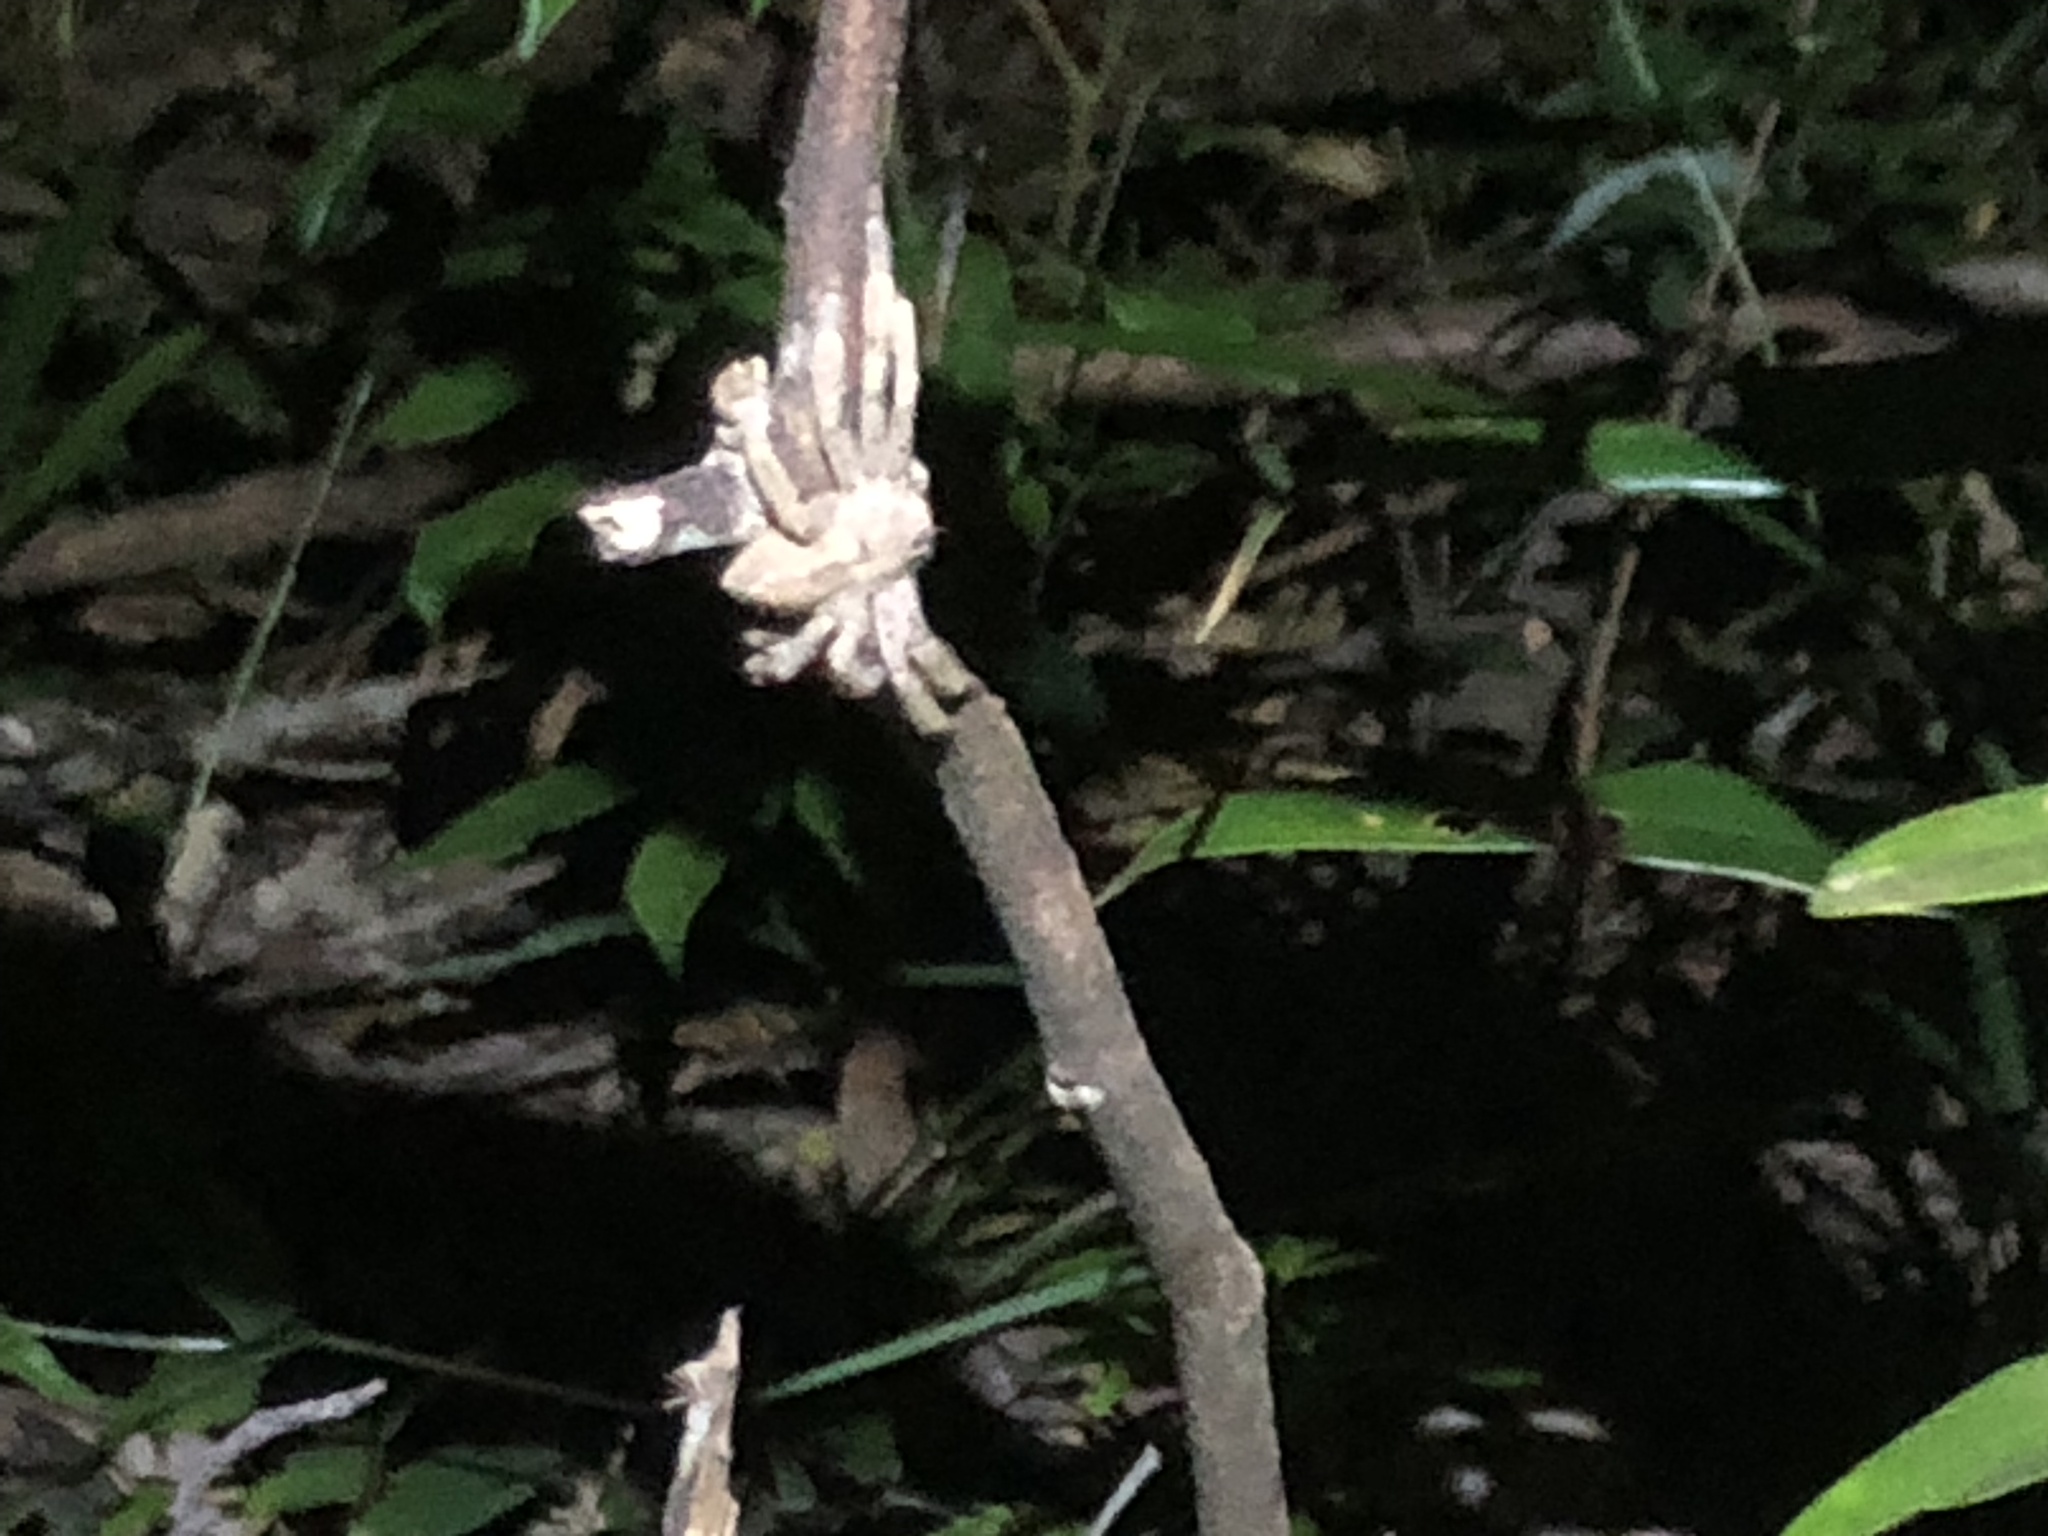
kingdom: Animalia
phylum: Arthropoda
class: Arachnida
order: Araneae
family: Sparassidae
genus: Heteropoda
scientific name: Heteropoda pingtungensis
